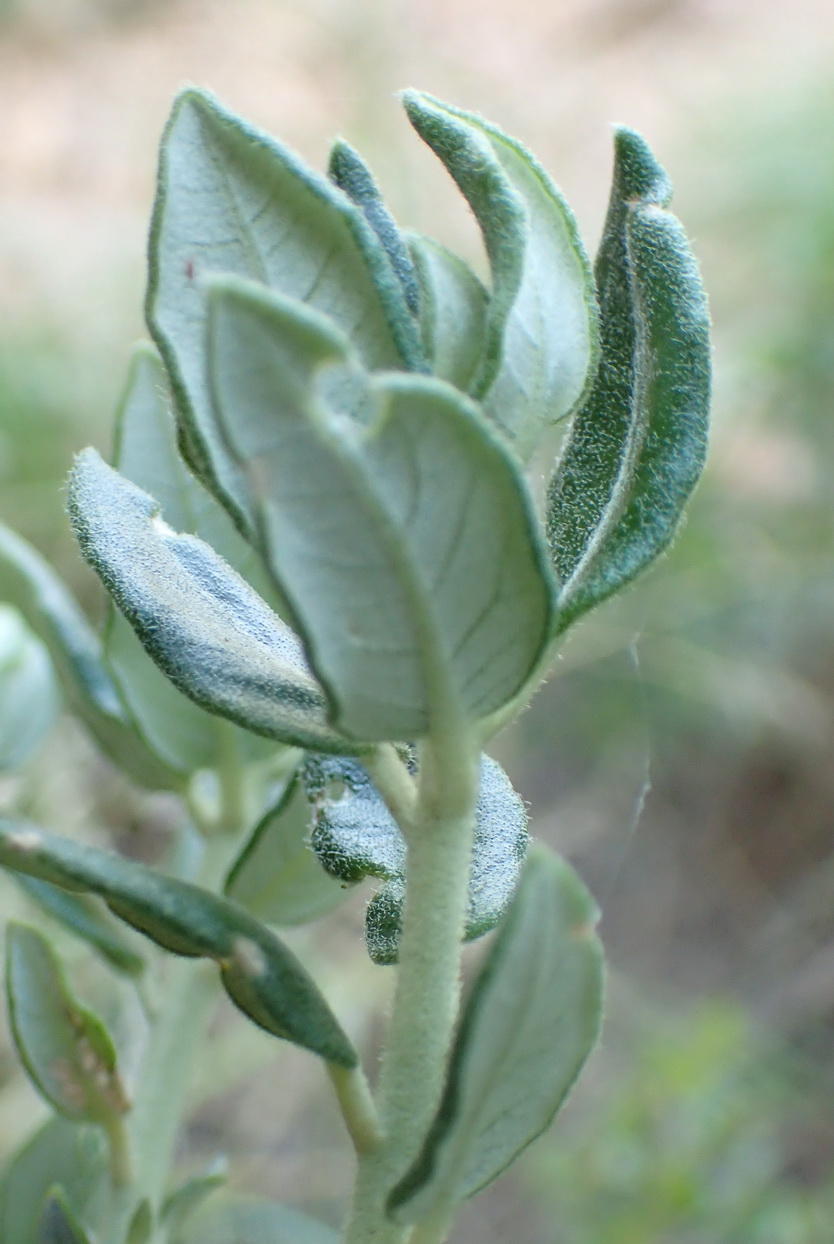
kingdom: Plantae
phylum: Tracheophyta
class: Magnoliopsida
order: Rosales
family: Rhamnaceae
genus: Phylica
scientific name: Phylica buxifolia
